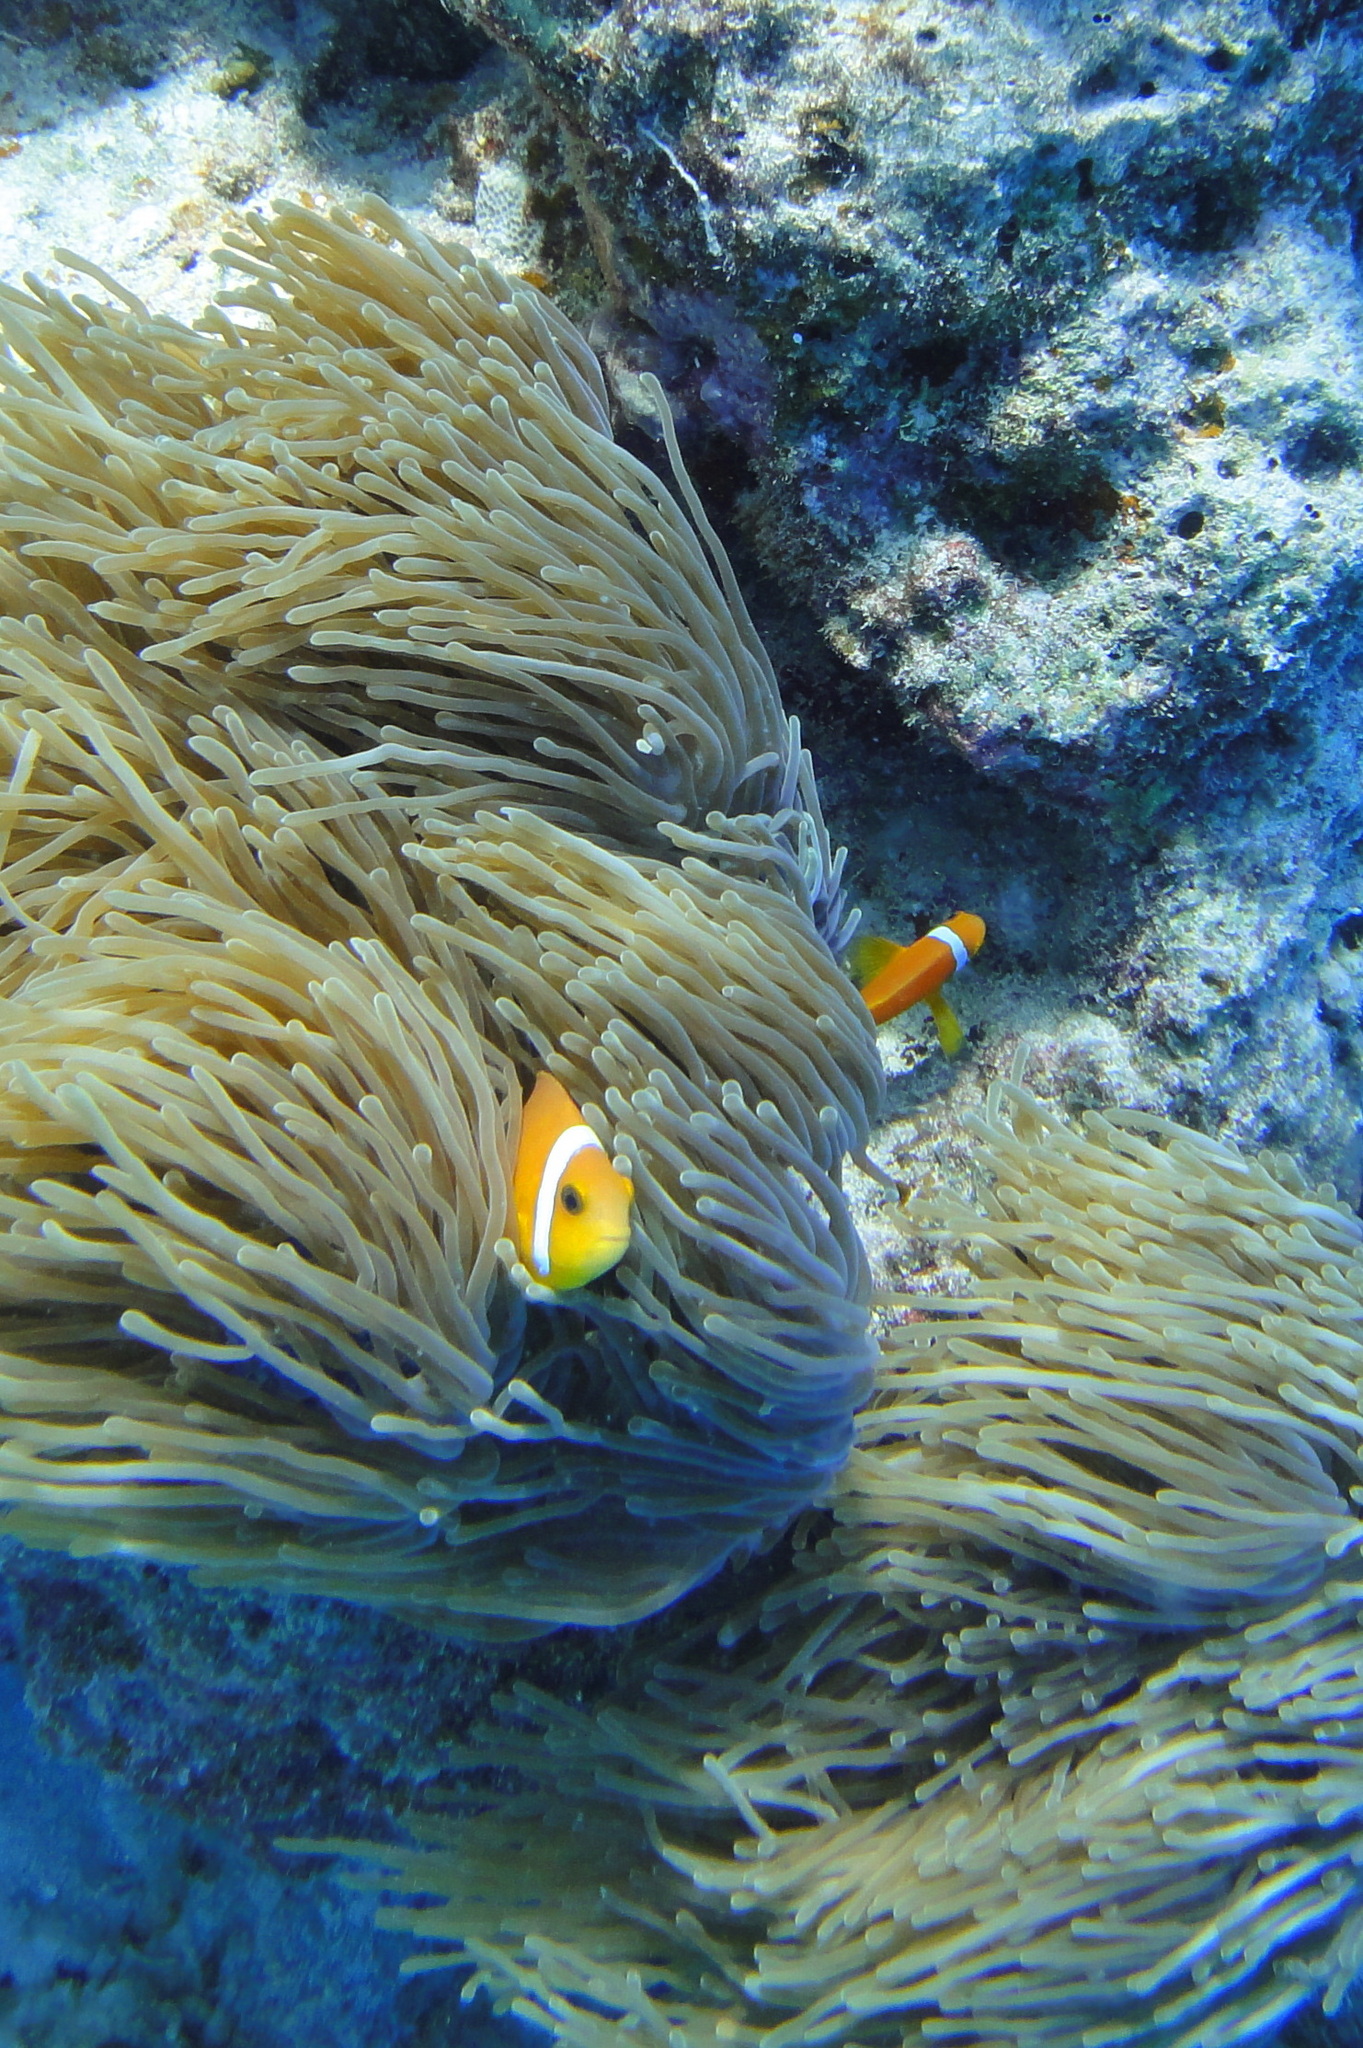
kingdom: Animalia
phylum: Chordata
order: Perciformes
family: Pomacentridae
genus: Amphiprion
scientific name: Amphiprion nigripes
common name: Maldive anemonefish
